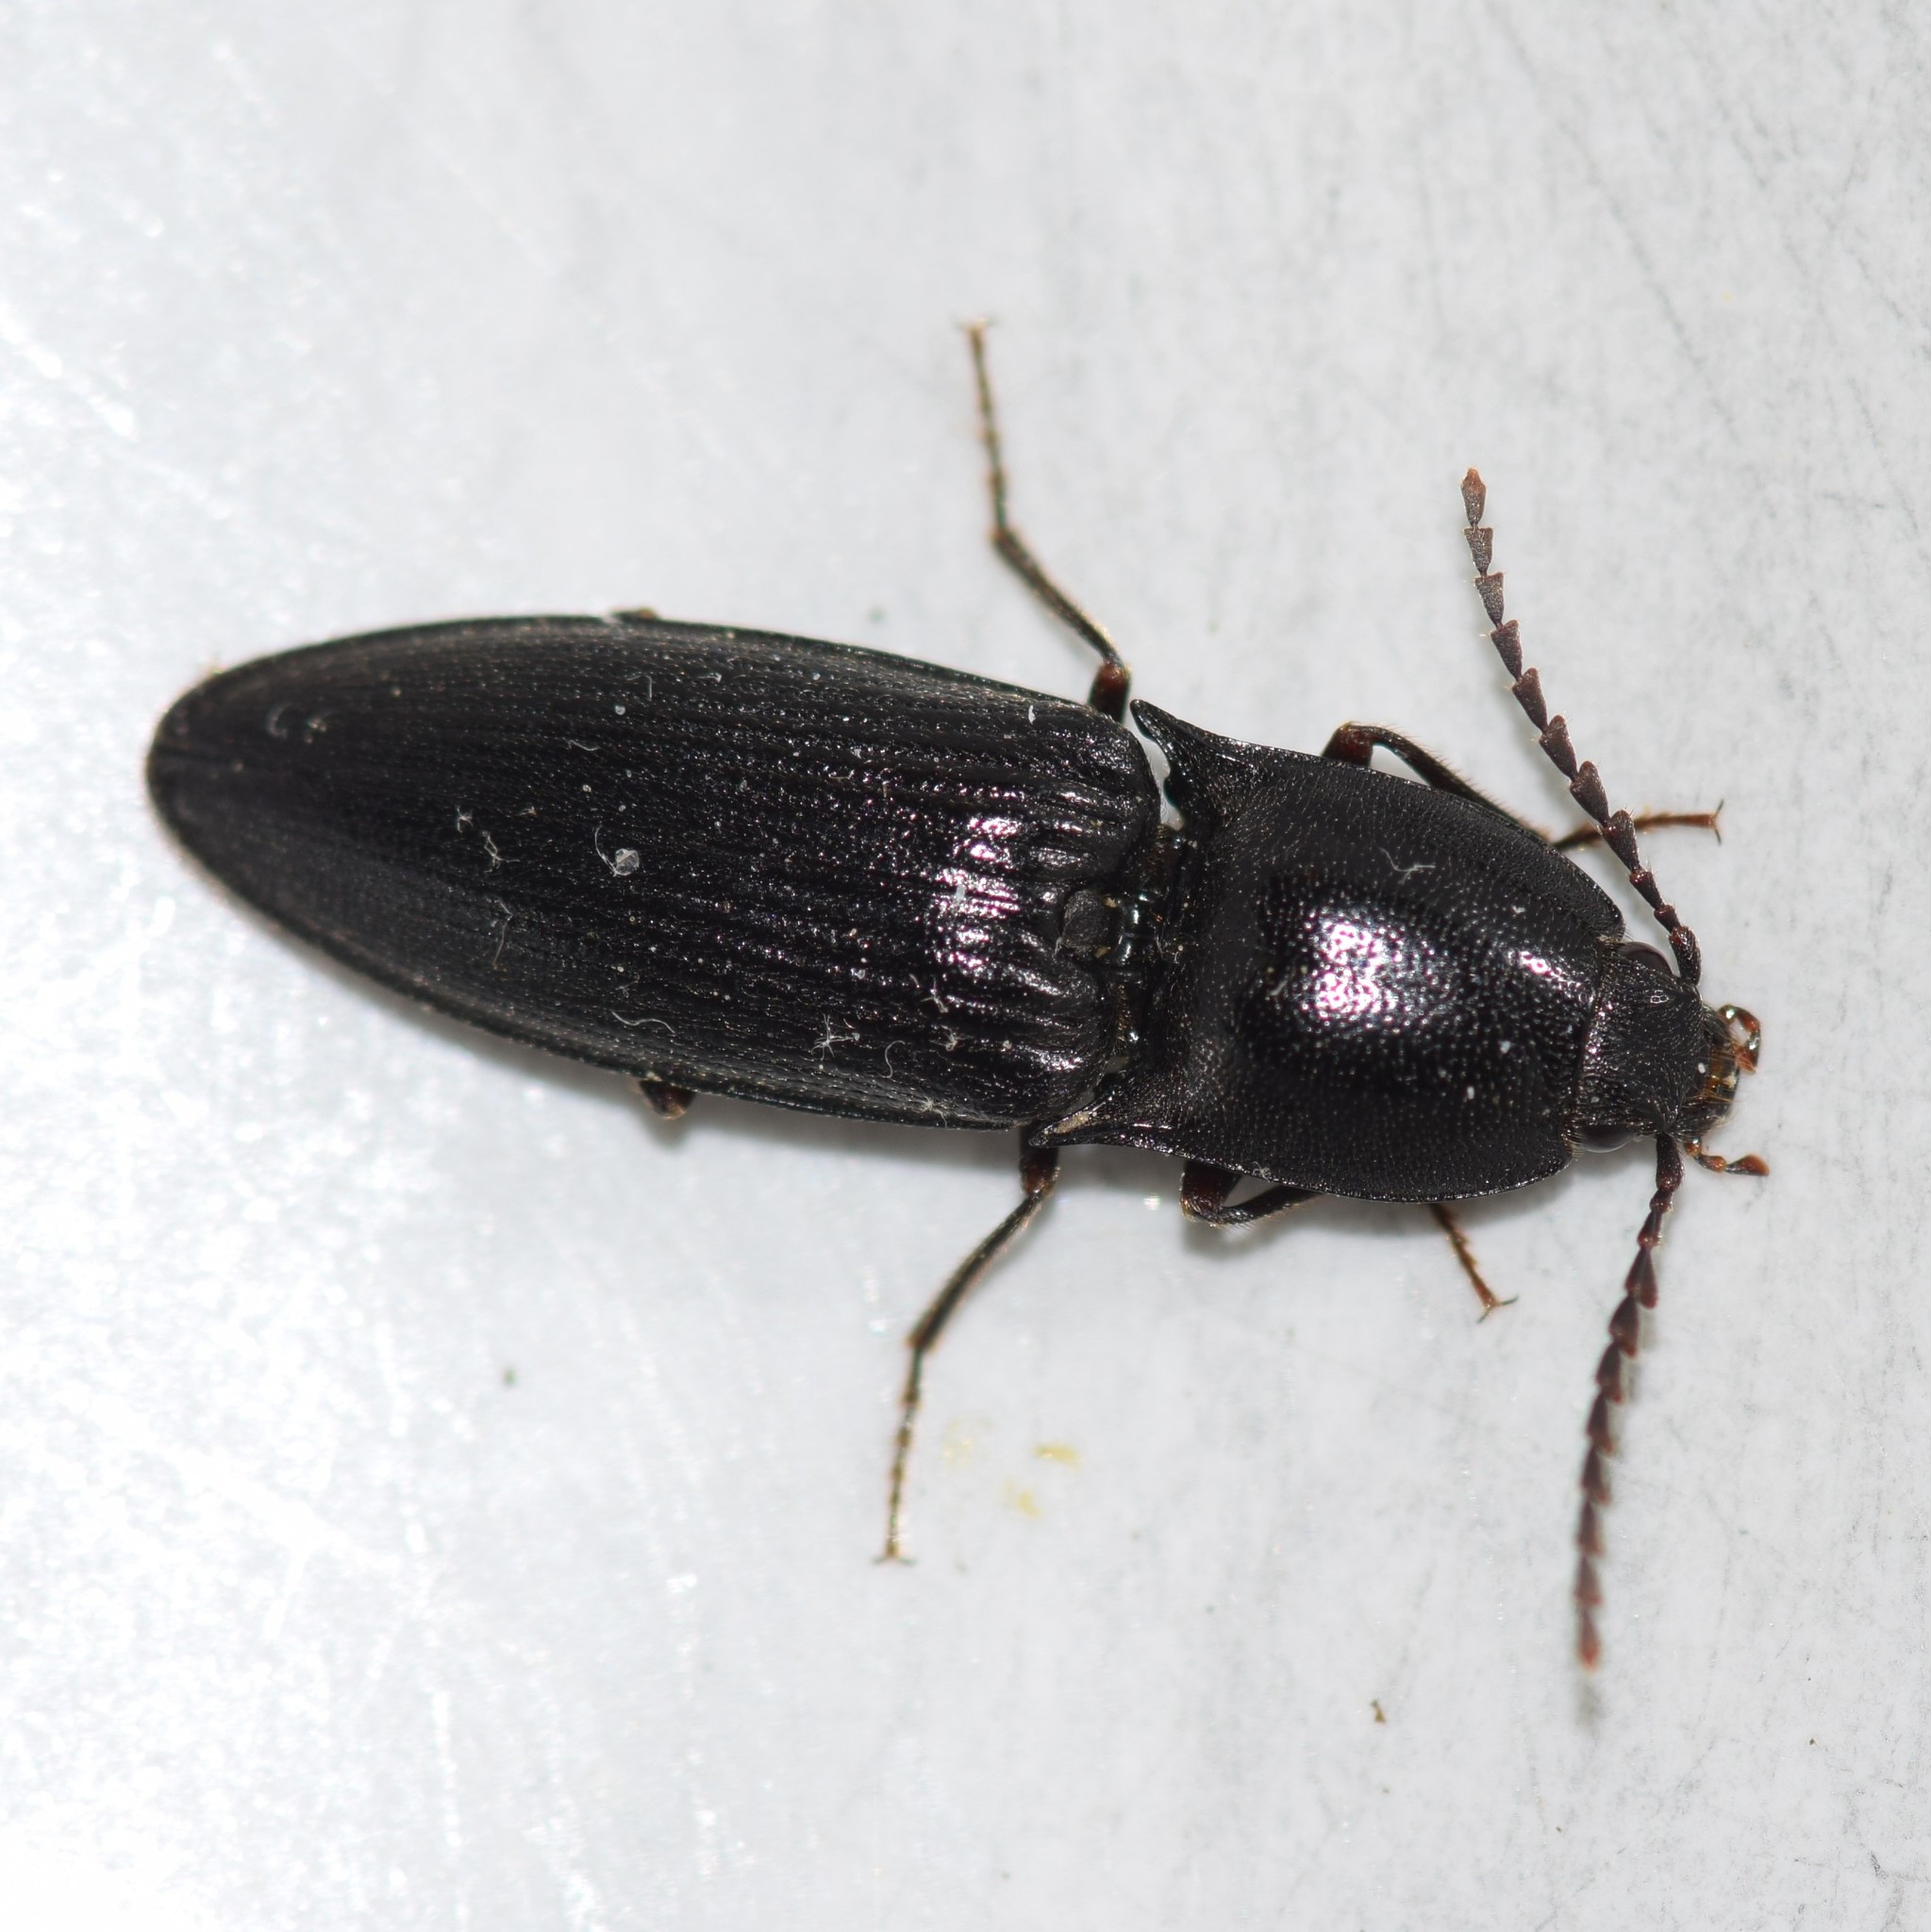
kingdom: Animalia
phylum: Arthropoda
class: Insecta
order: Coleoptera
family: Elateridae
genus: Neopristilophus
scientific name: Neopristilophus
